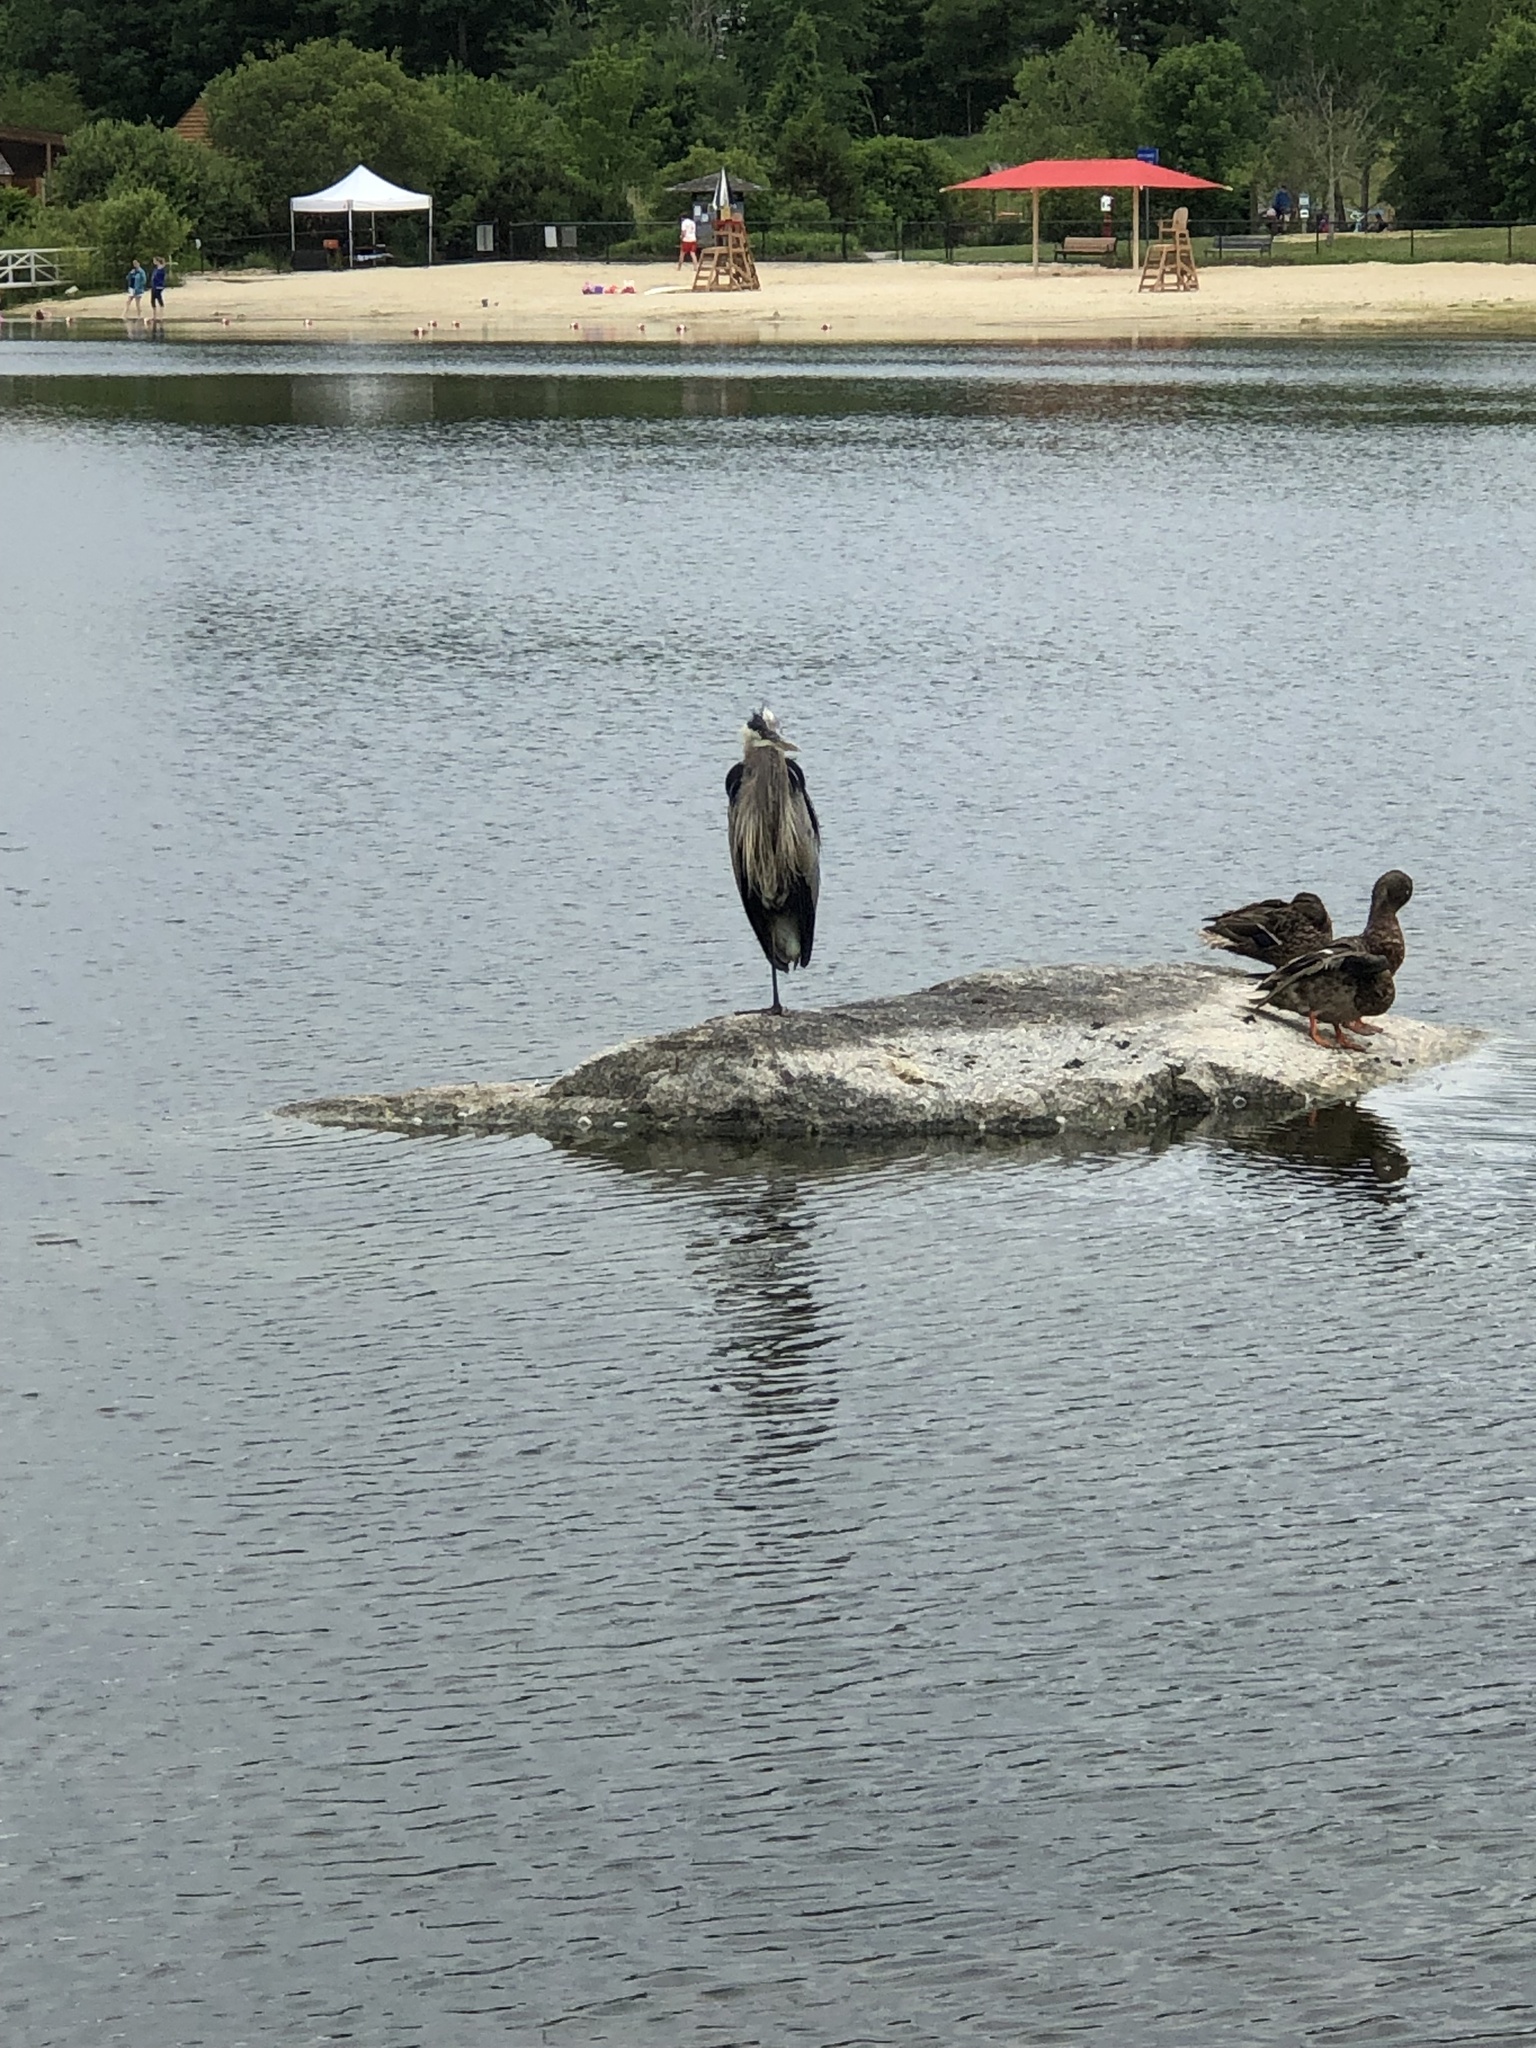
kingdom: Animalia
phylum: Chordata
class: Aves
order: Pelecaniformes
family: Ardeidae
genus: Ardea
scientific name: Ardea herodias
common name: Great blue heron
